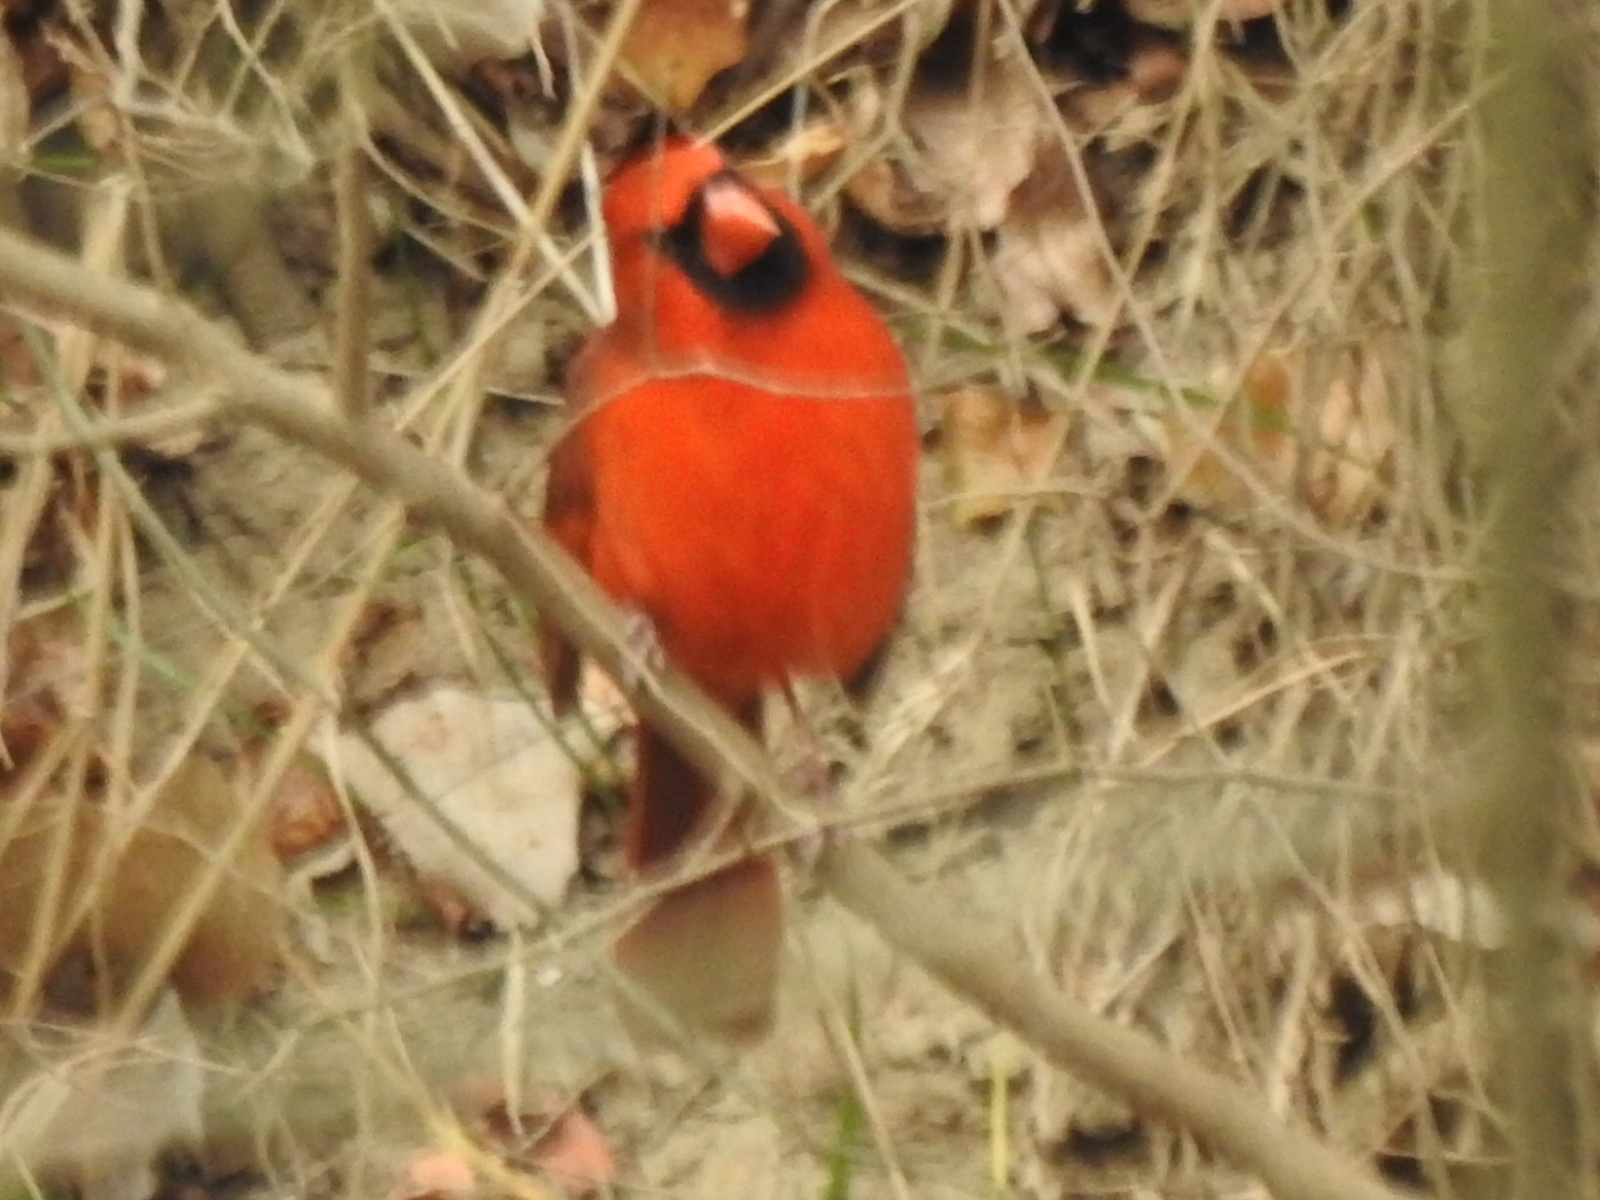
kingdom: Animalia
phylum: Chordata
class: Aves
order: Passeriformes
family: Cardinalidae
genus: Cardinalis
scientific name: Cardinalis cardinalis
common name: Northern cardinal
